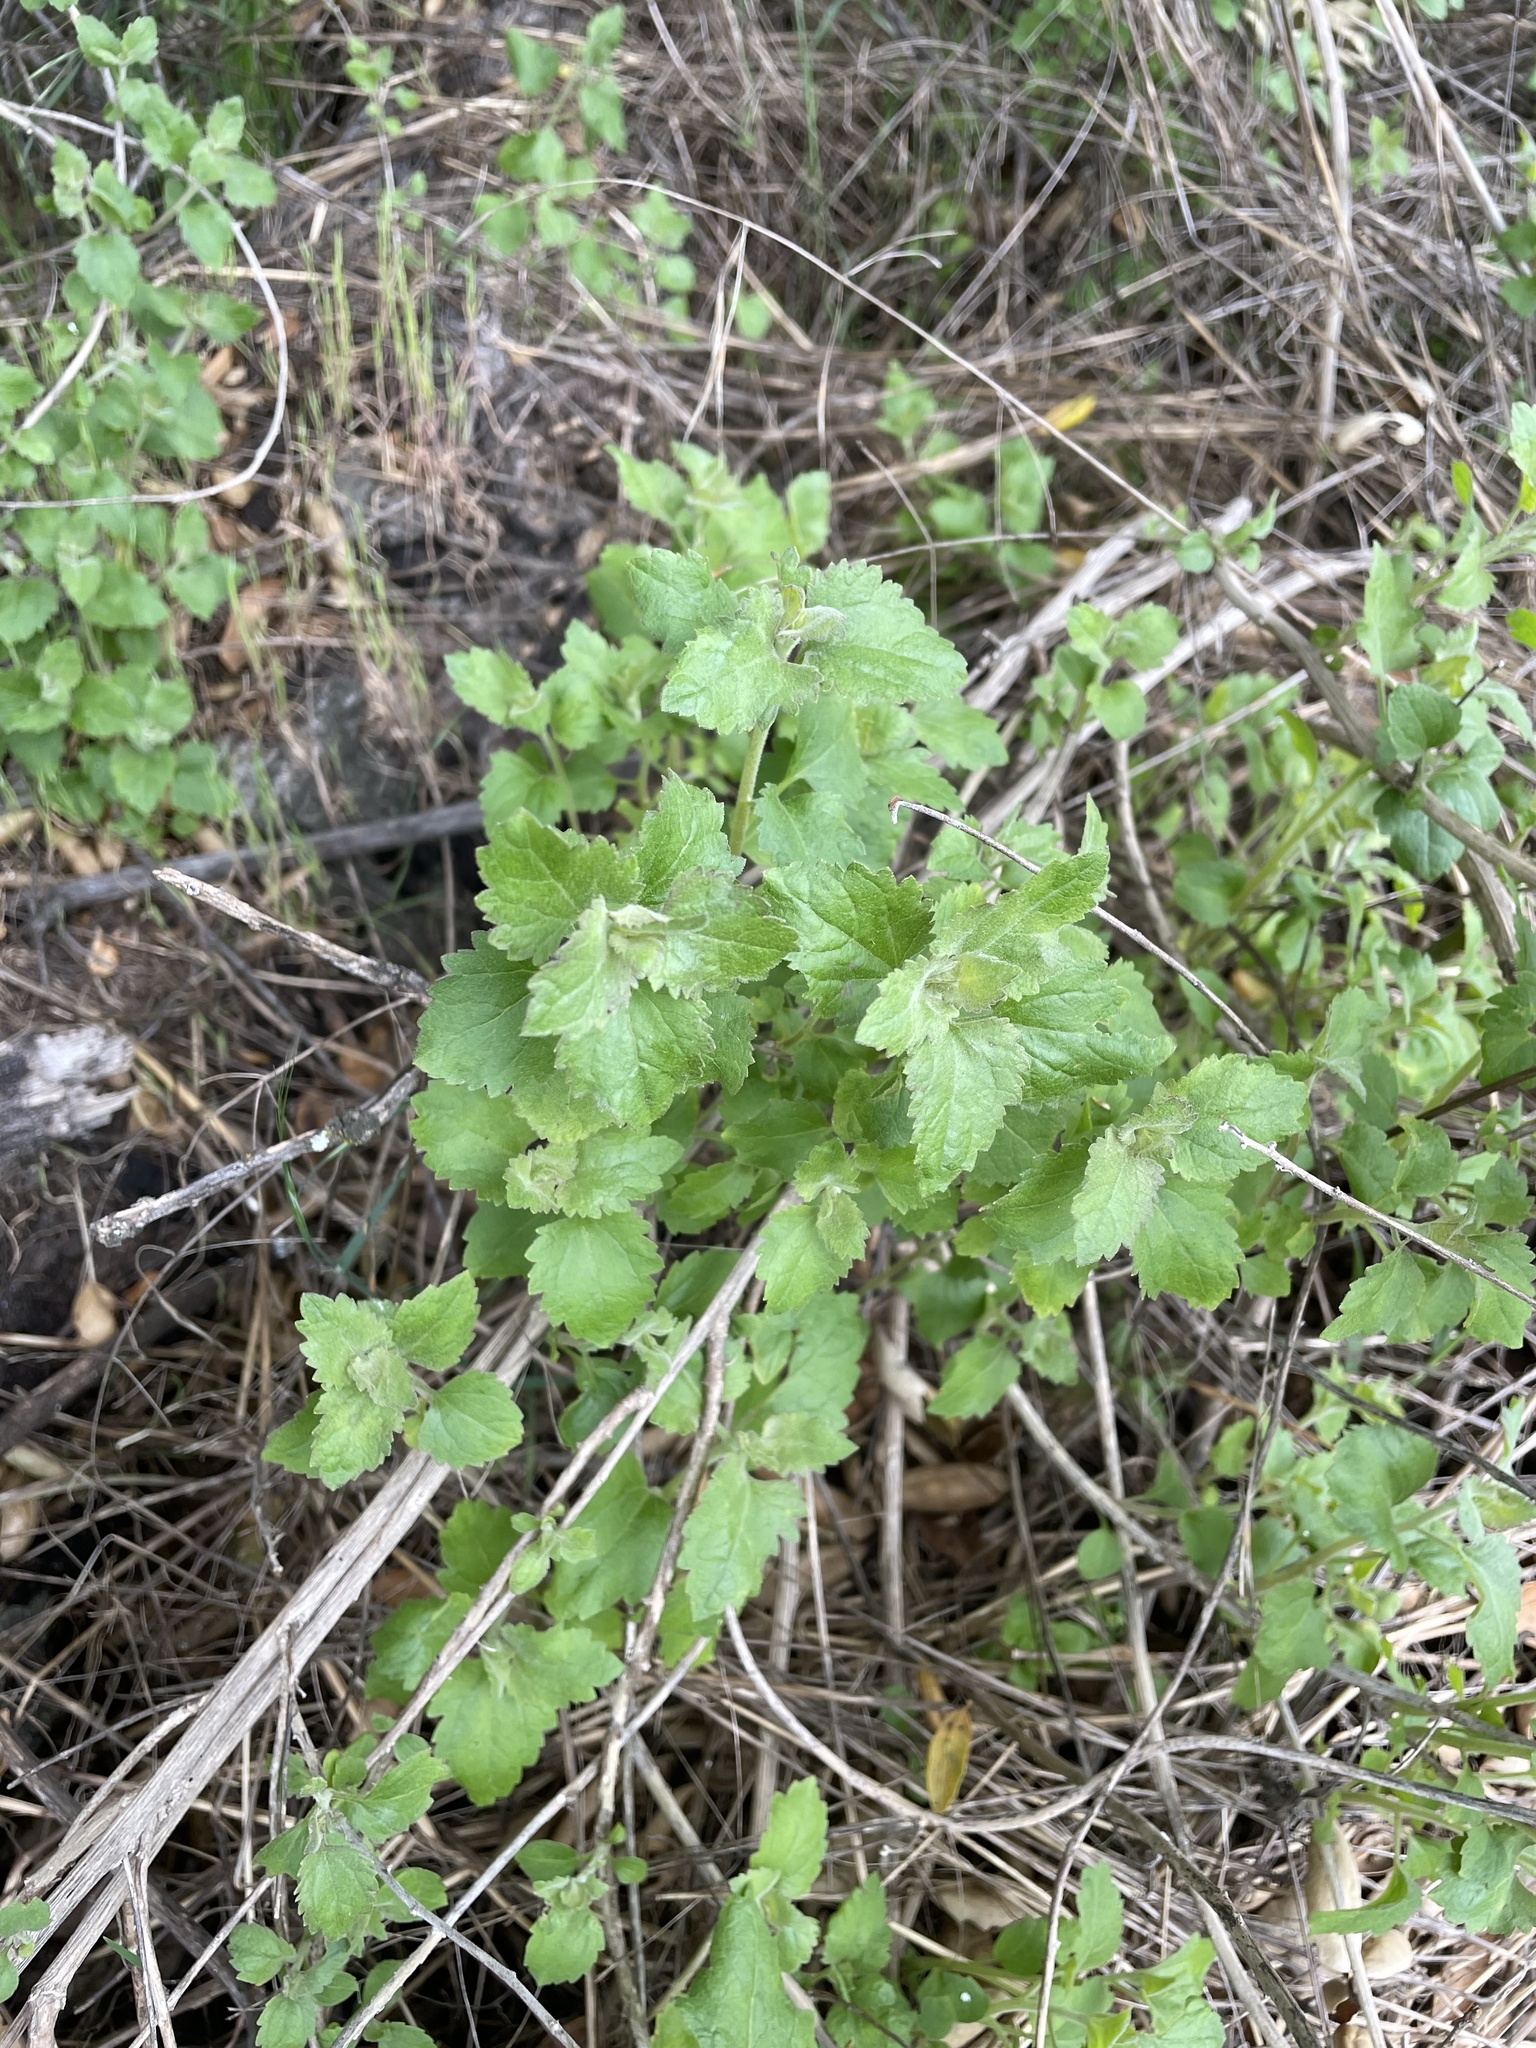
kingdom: Plantae
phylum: Tracheophyta
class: Magnoliopsida
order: Asterales
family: Asteraceae
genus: Brickellia
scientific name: Brickellia californica
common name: California brickellbush
